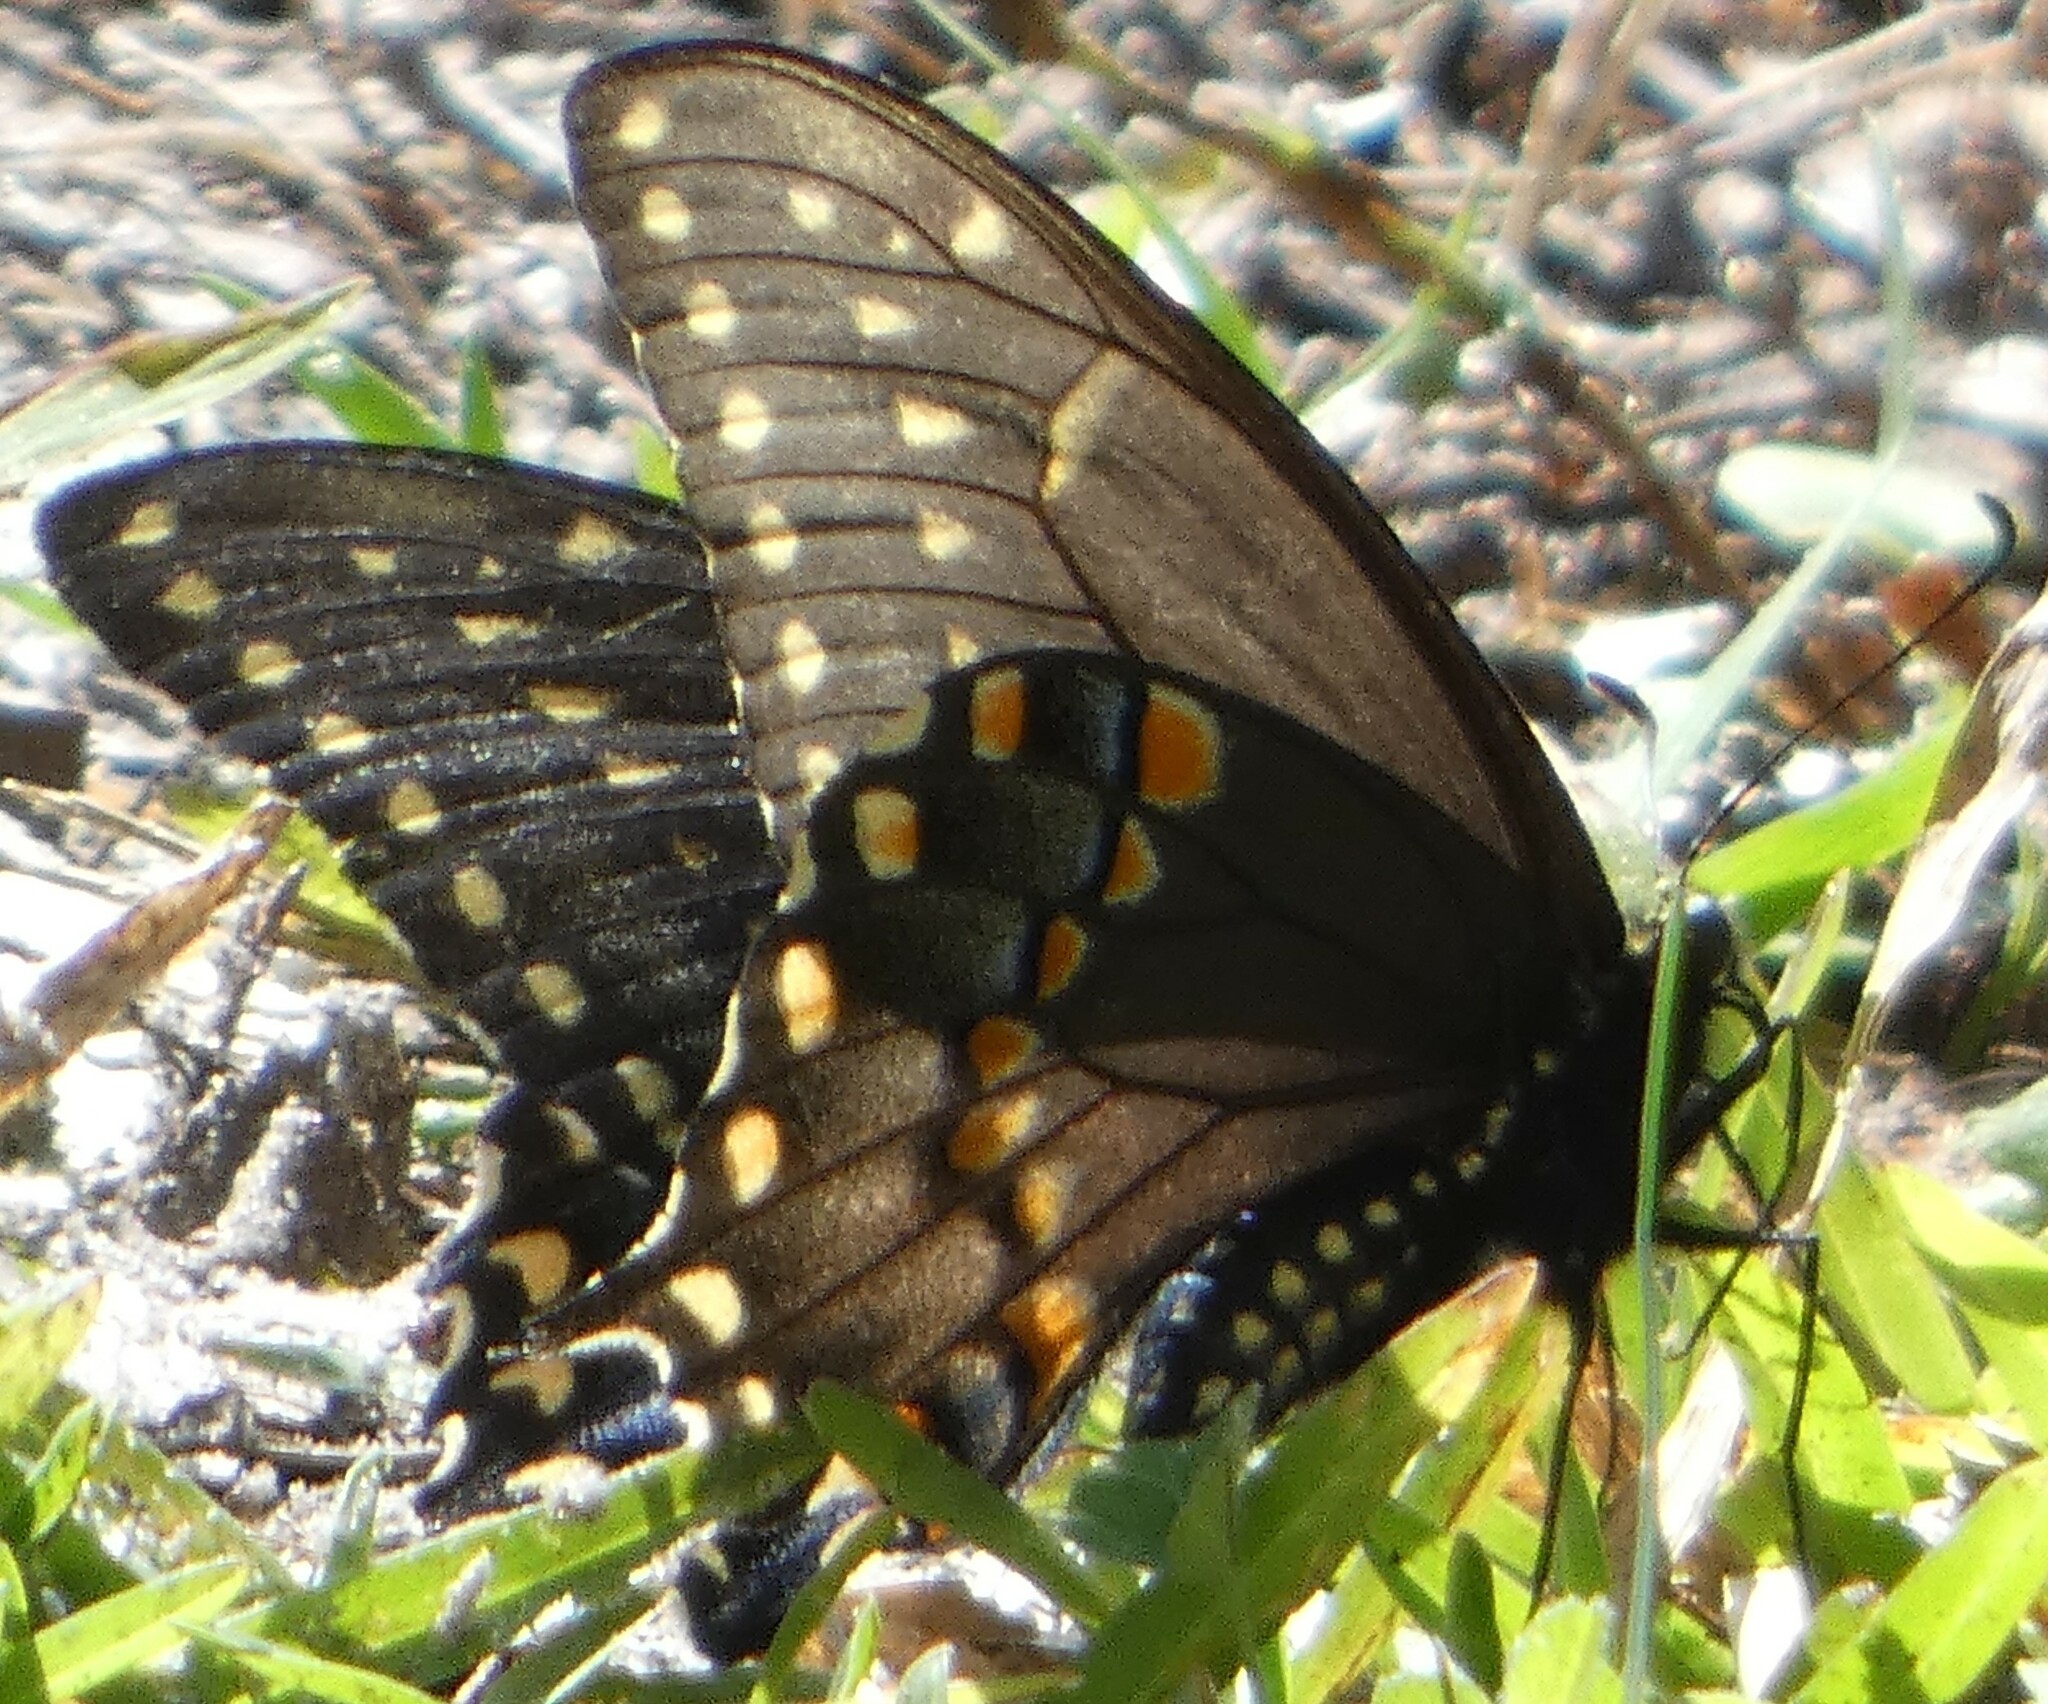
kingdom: Animalia
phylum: Arthropoda
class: Insecta
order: Lepidoptera
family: Papilionidae
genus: Papilio
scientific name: Papilio polyxenes
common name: Black swallowtail
